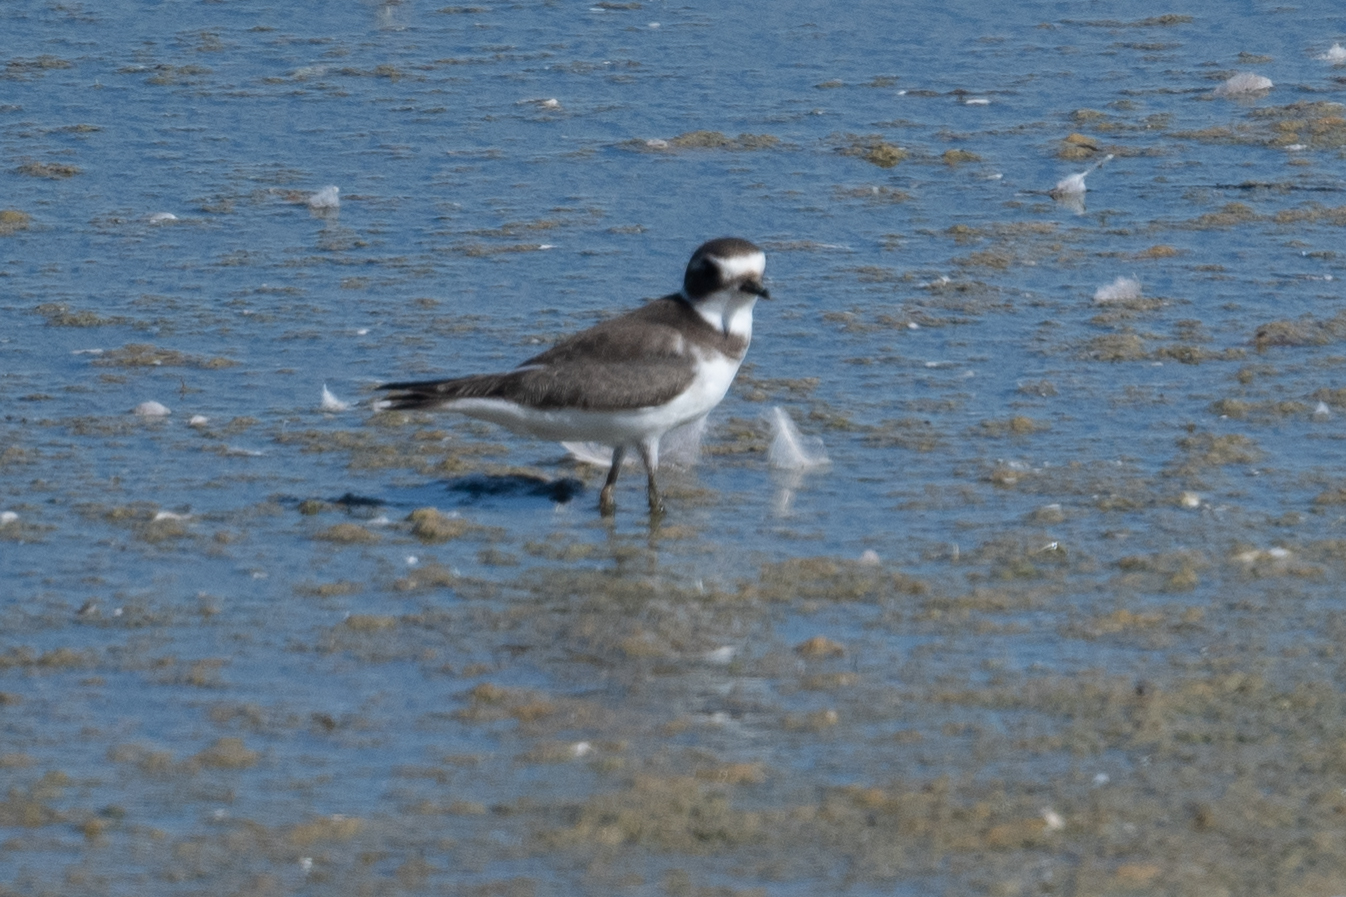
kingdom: Animalia
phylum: Chordata
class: Aves
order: Charadriiformes
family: Charadriidae
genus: Charadrius
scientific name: Charadrius semipalmatus
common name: Semipalmated plover
